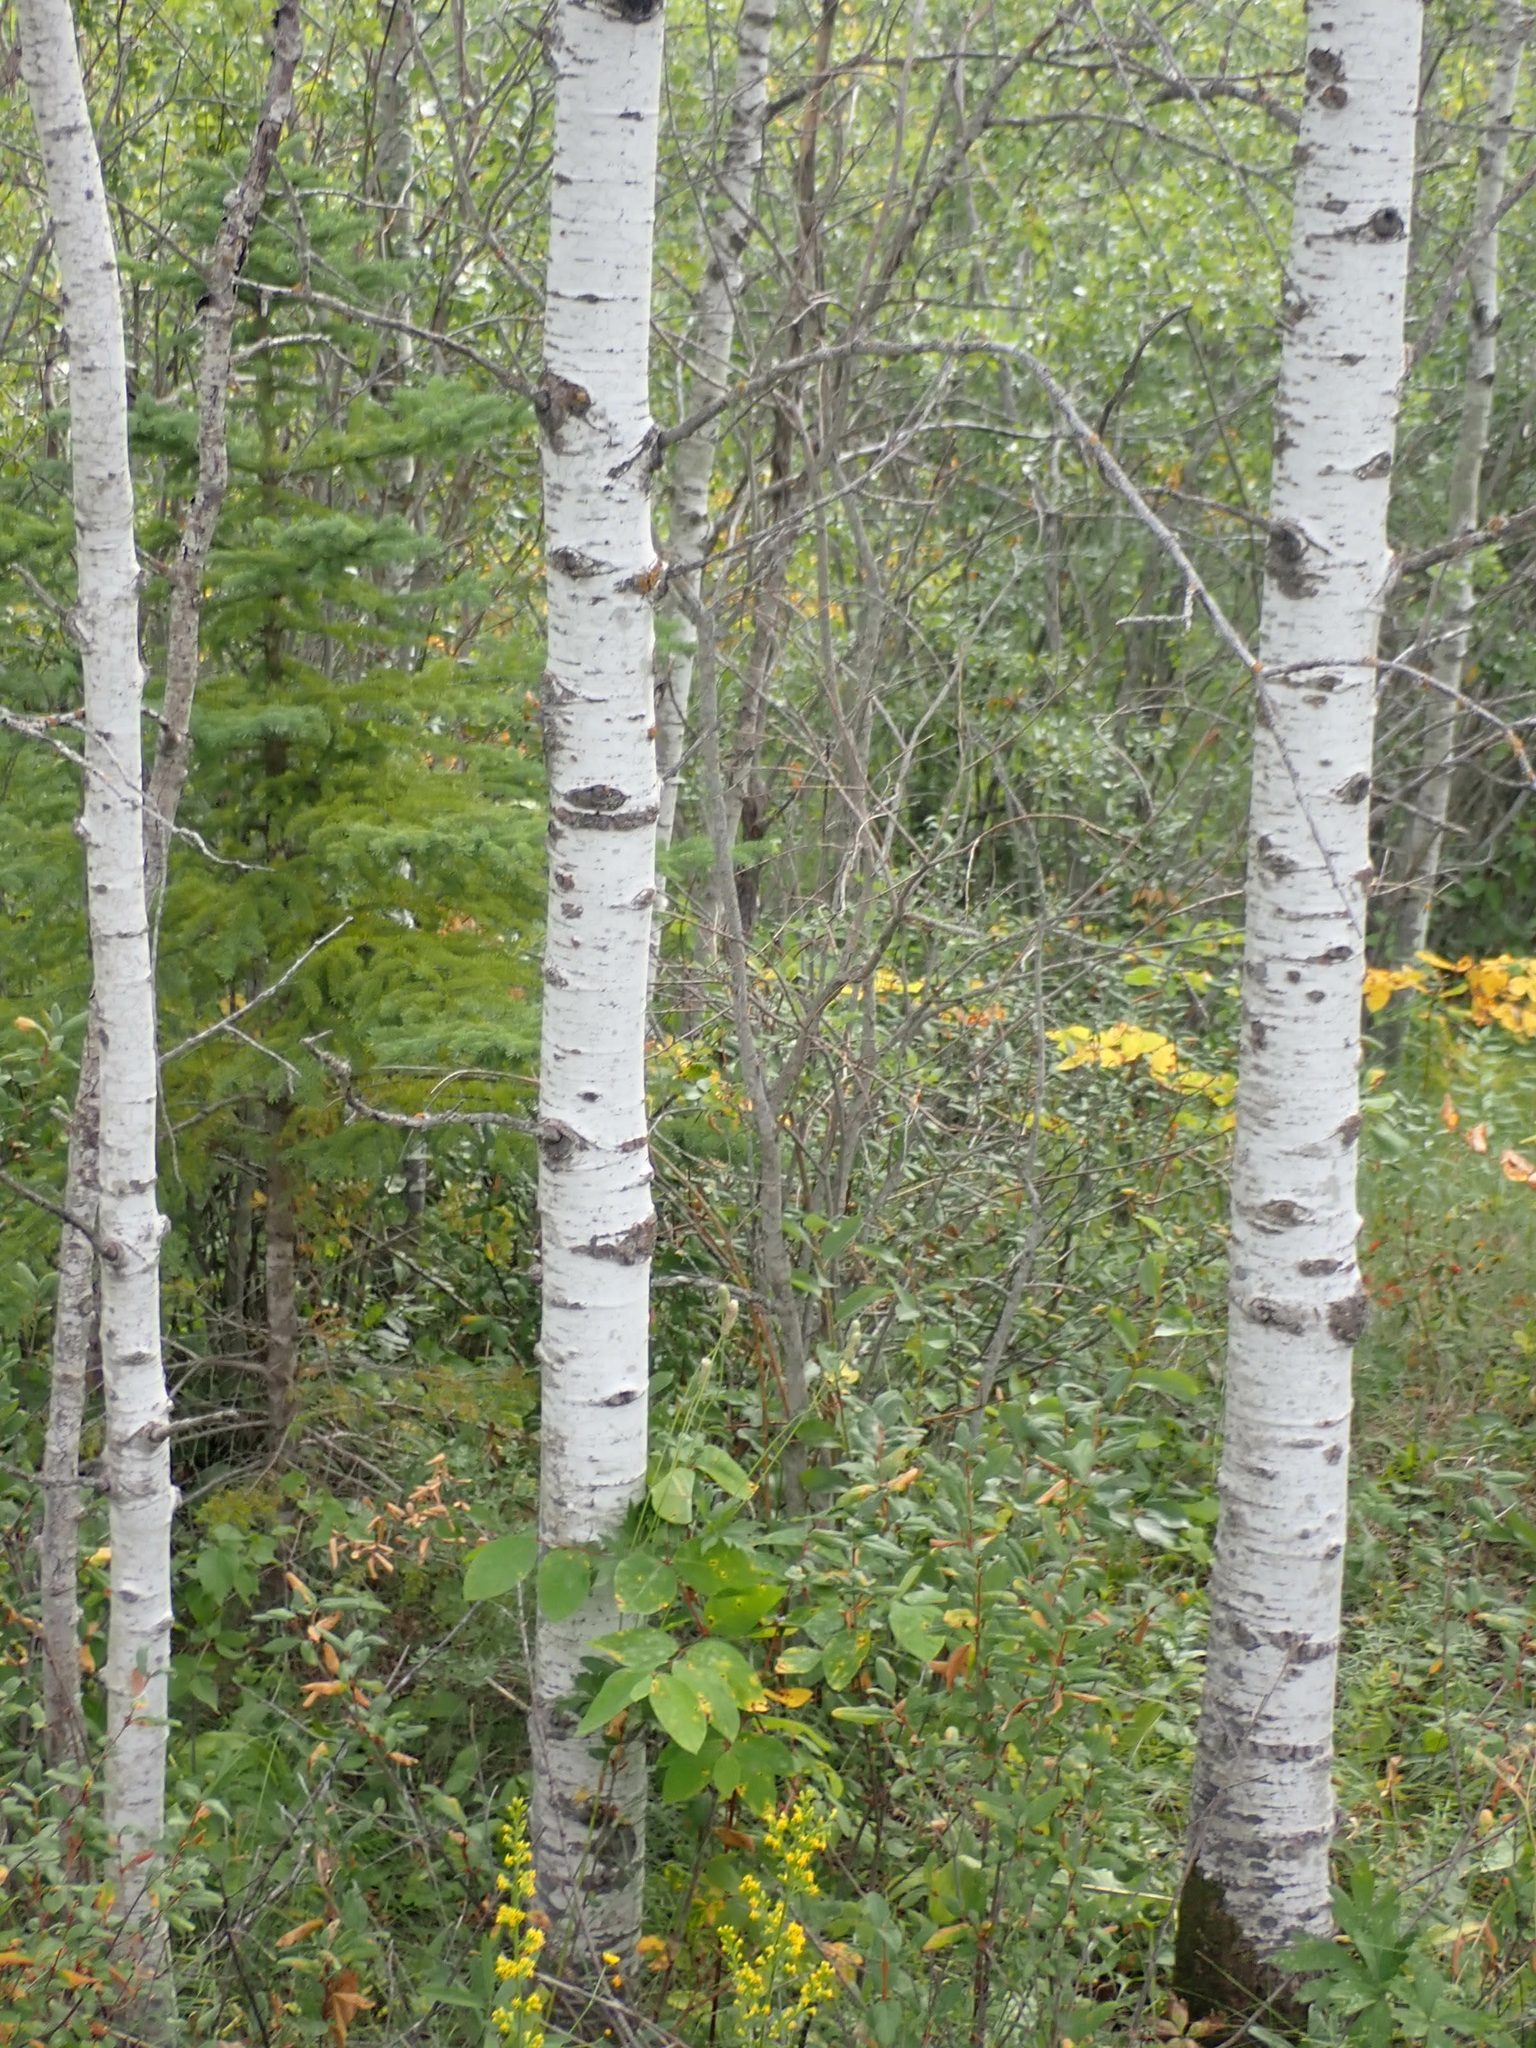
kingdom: Plantae
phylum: Tracheophyta
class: Magnoliopsida
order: Malpighiales
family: Salicaceae
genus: Populus
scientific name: Populus tremuloides
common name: Quaking aspen
